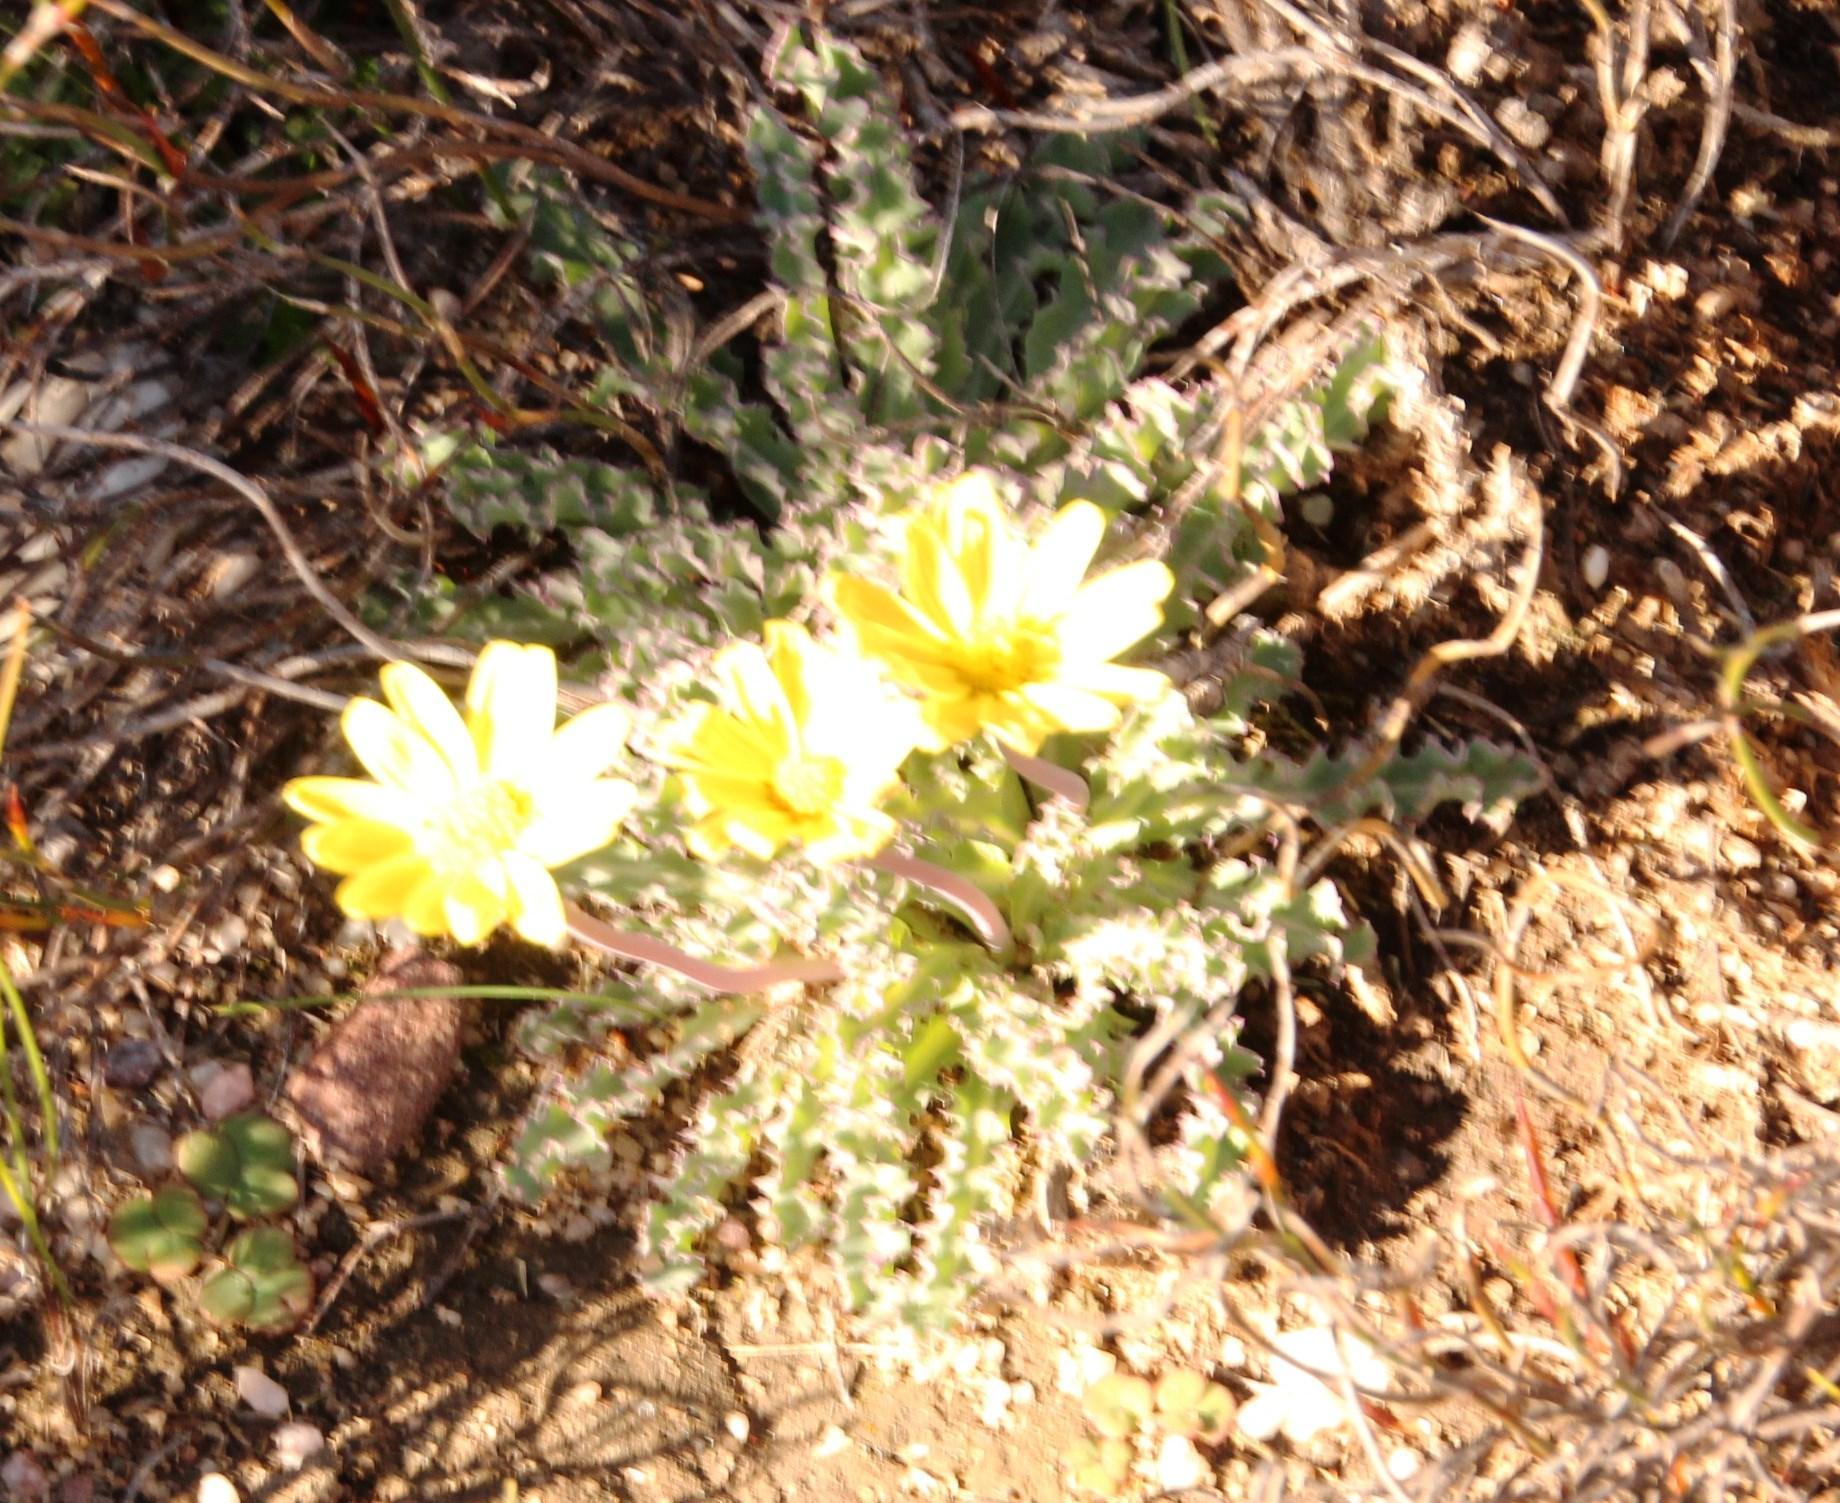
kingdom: Plantae
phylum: Tracheophyta
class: Magnoliopsida
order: Asterales
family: Asteraceae
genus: Othonna
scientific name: Othonna auriculifolia
